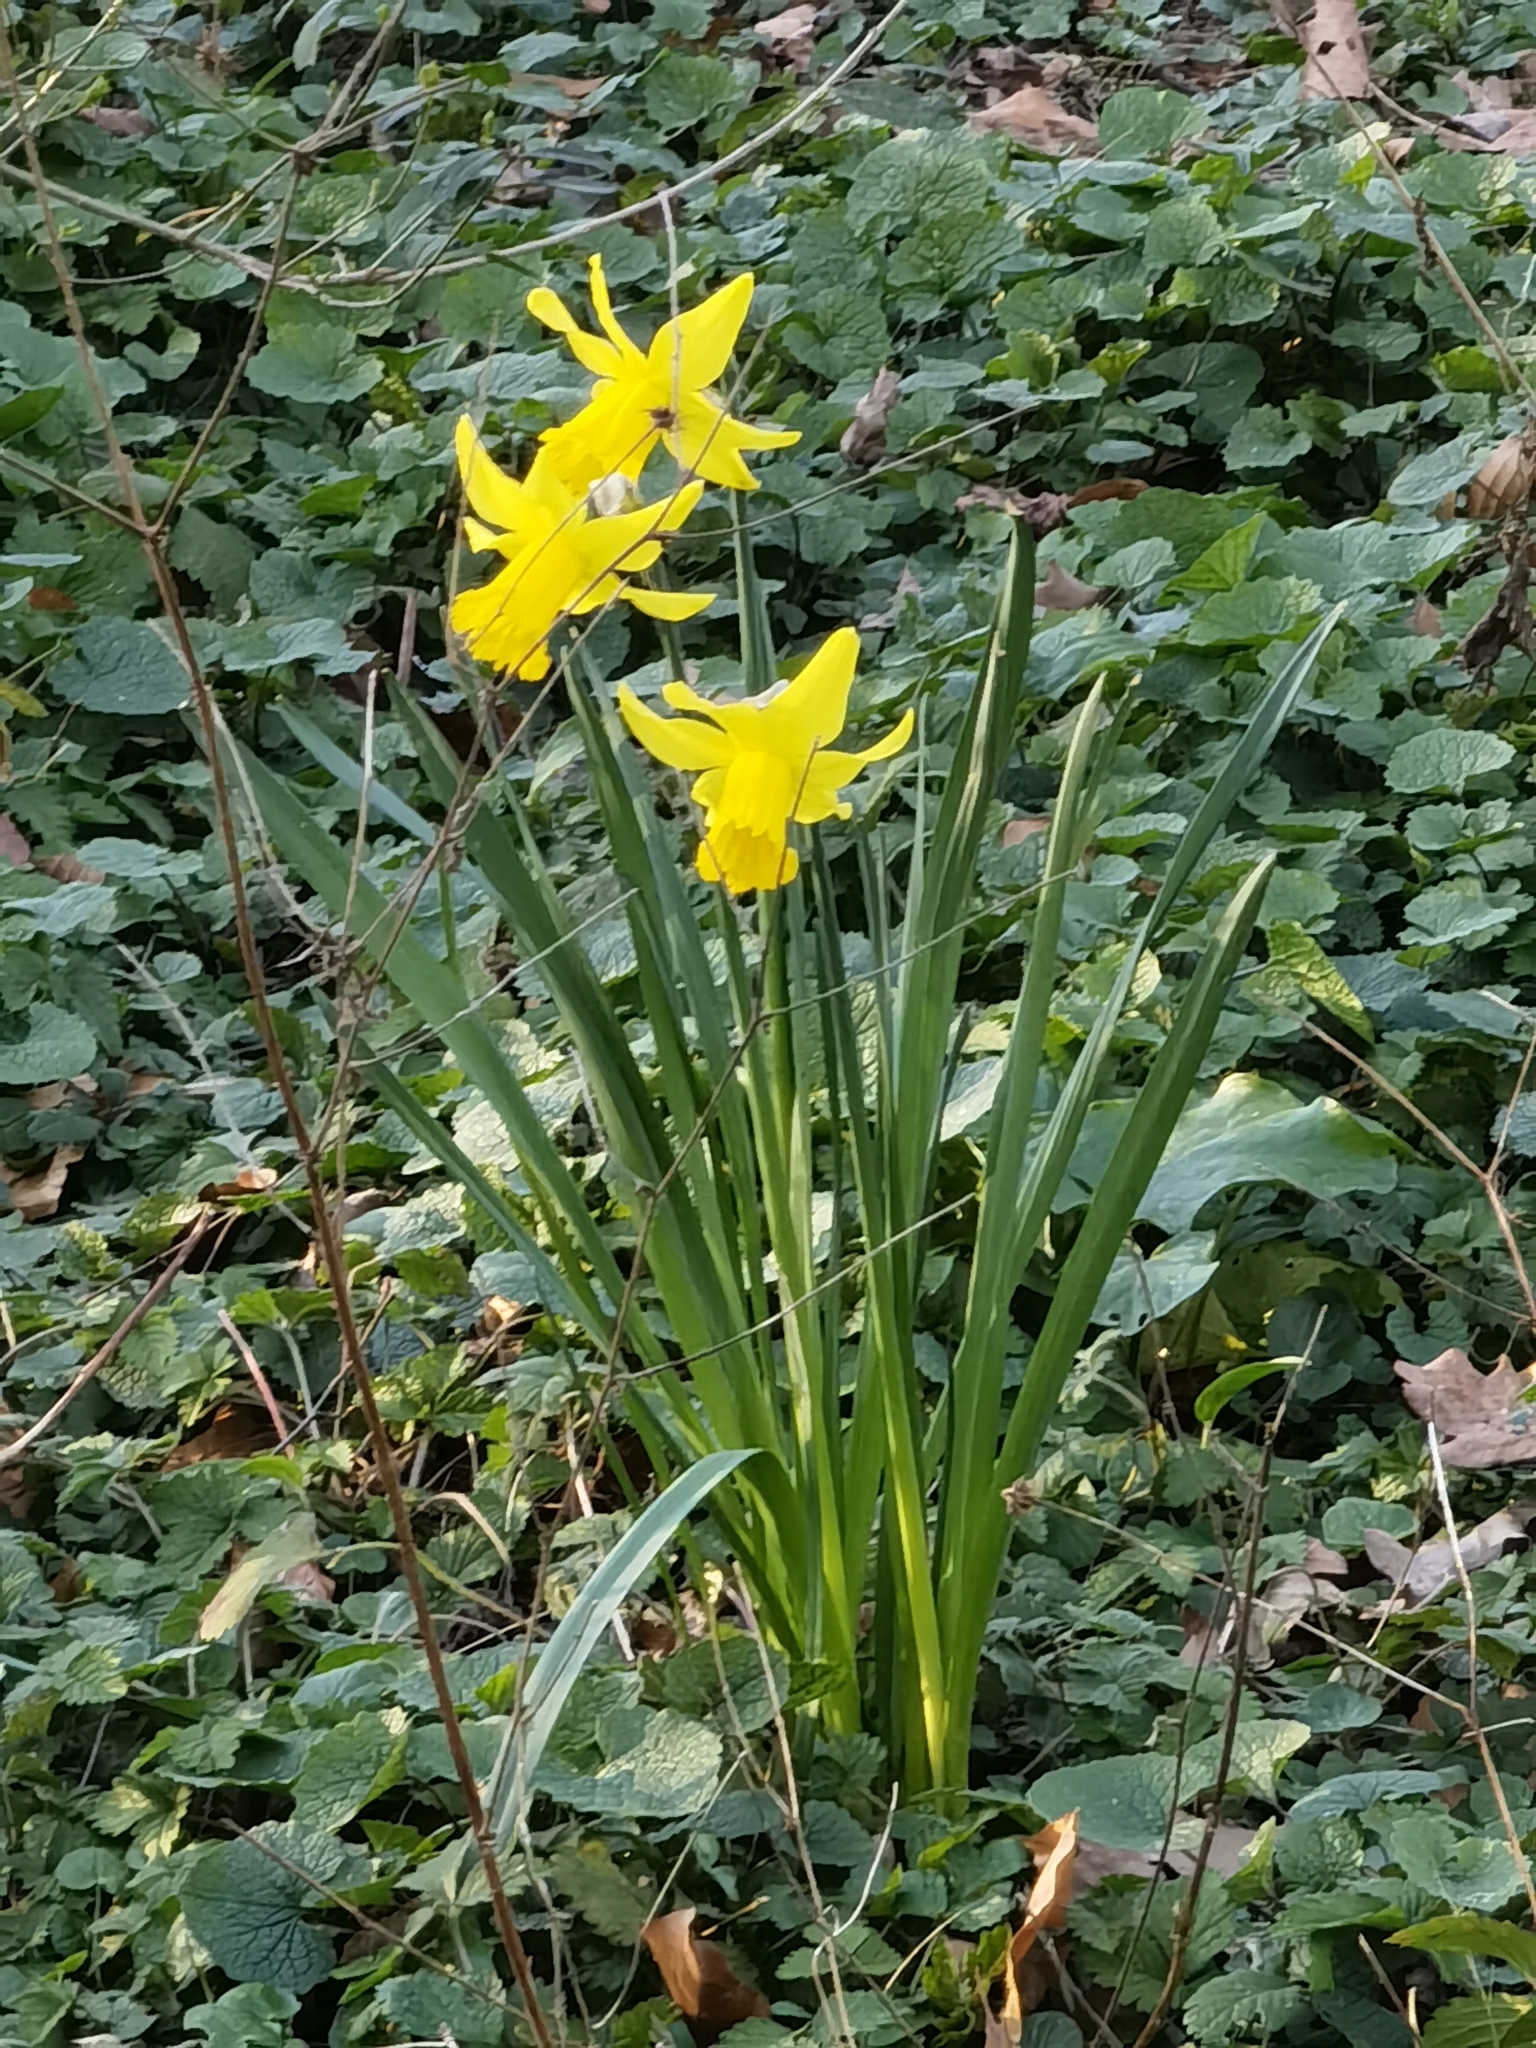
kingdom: Plantae
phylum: Tracheophyta
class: Liliopsida
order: Asparagales
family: Amaryllidaceae
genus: Narcissus
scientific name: Narcissus pseudonarcissus
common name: Daffodil
